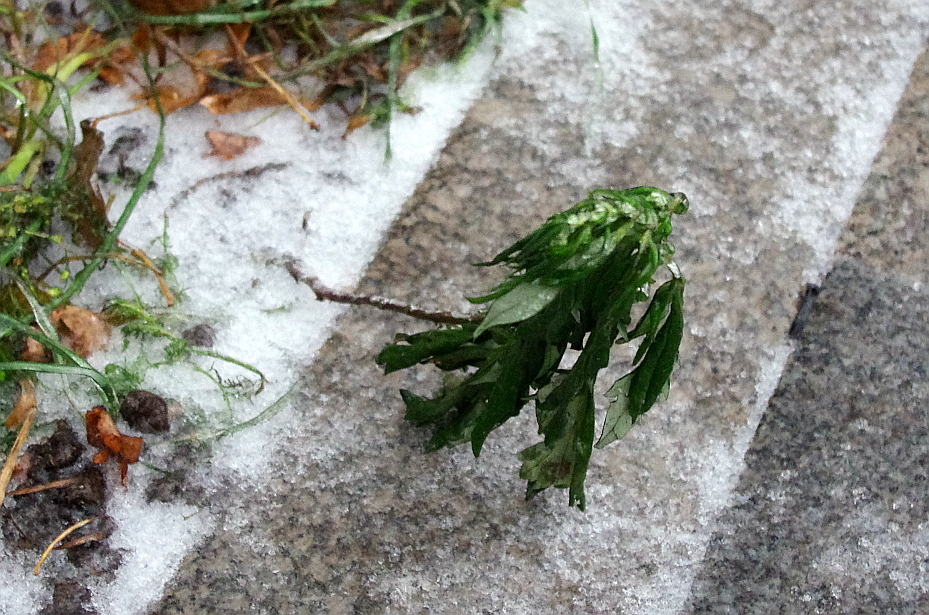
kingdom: Plantae
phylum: Tracheophyta
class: Magnoliopsida
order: Asterales
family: Asteraceae
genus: Artemisia
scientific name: Artemisia vulgaris
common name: Mugwort
